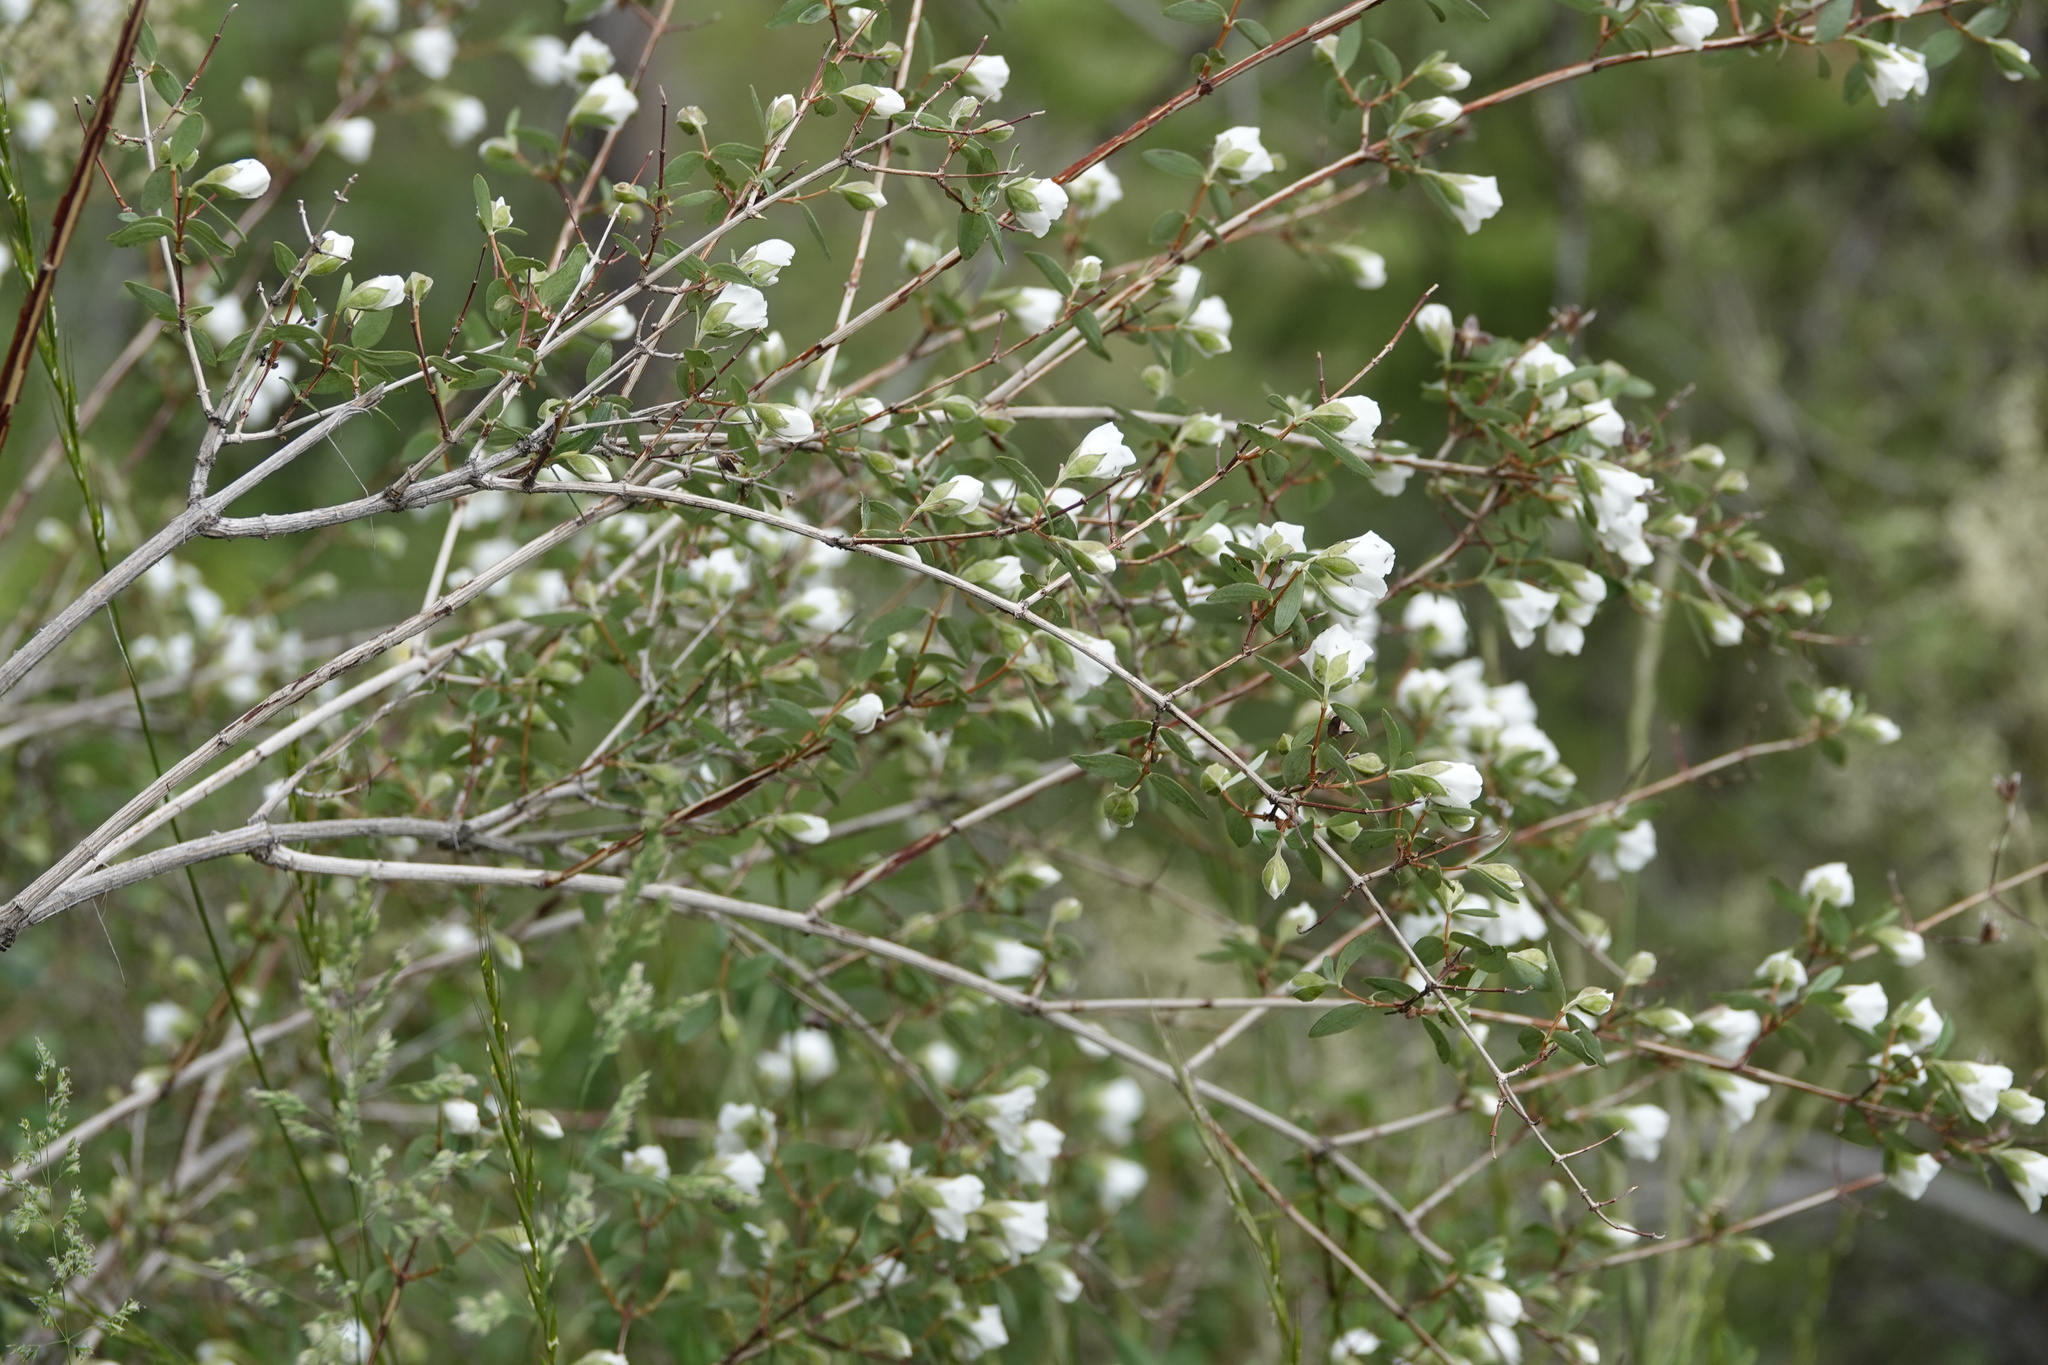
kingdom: Plantae
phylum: Tracheophyta
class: Magnoliopsida
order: Cornales
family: Hydrangeaceae
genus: Philadelphus
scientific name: Philadelphus microphyllus
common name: Desert mock orange
